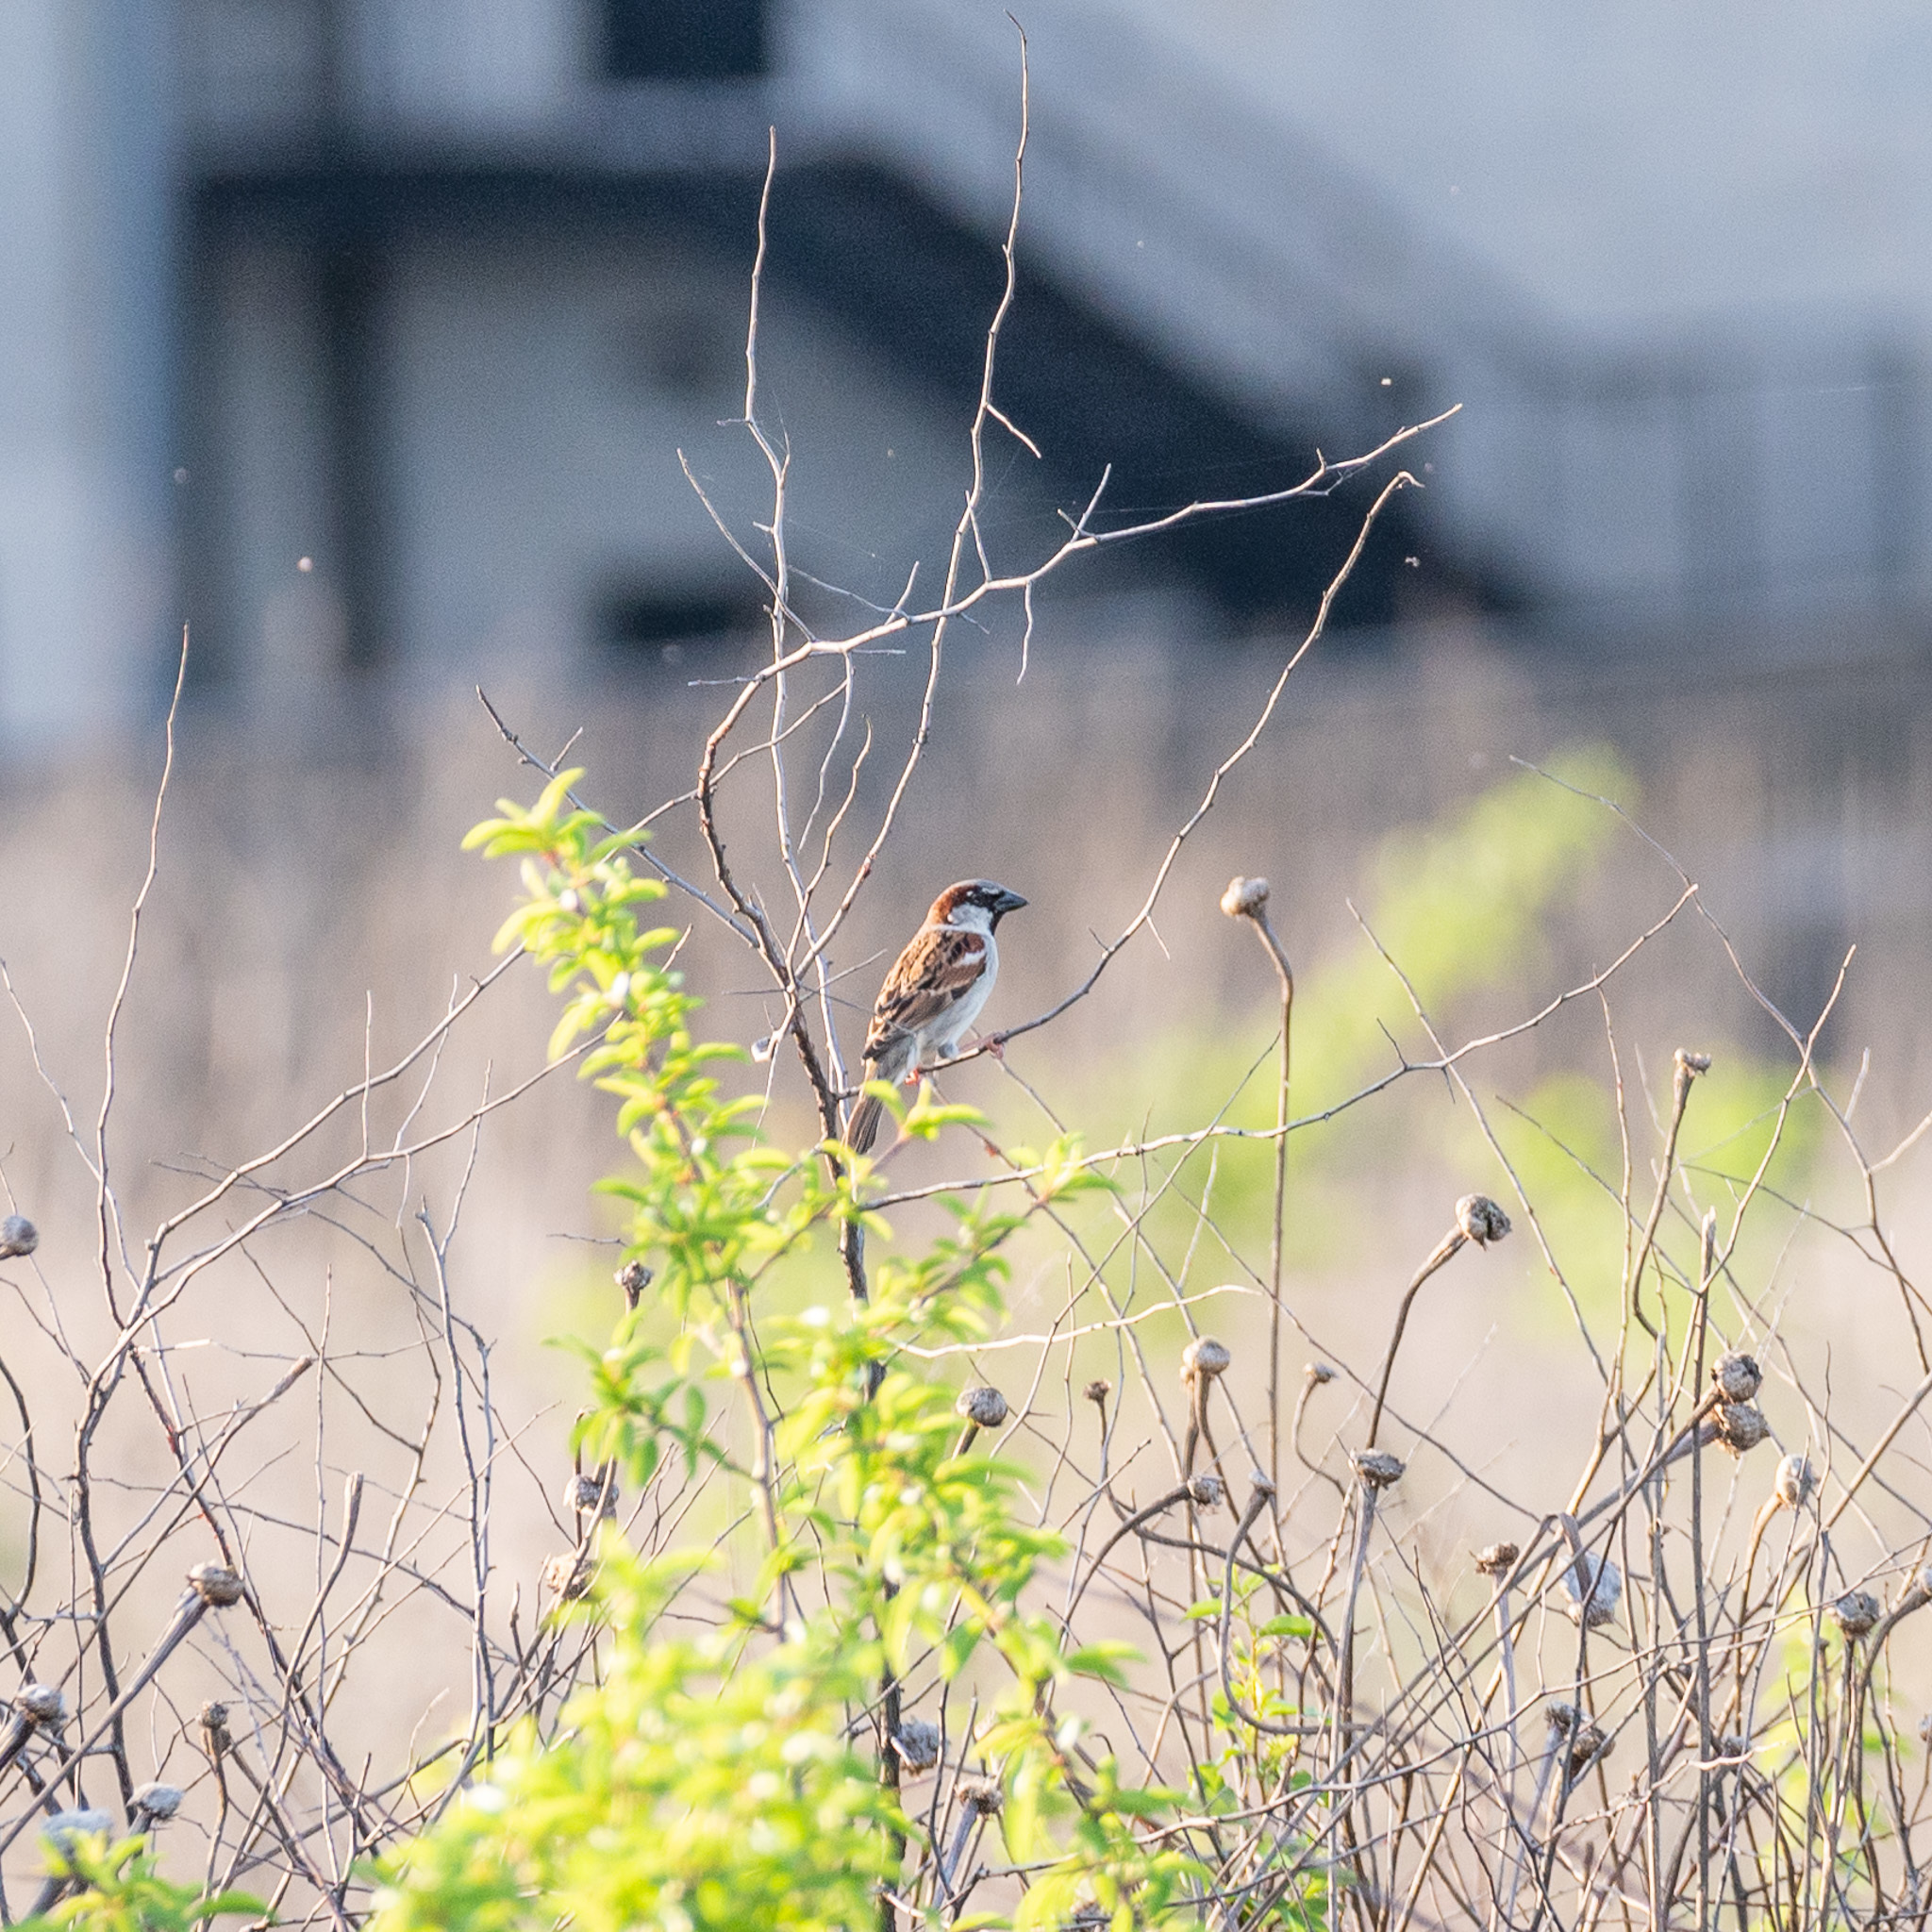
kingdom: Animalia
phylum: Chordata
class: Aves
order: Passeriformes
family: Passeridae
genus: Passer
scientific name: Passer domesticus
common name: House sparrow
